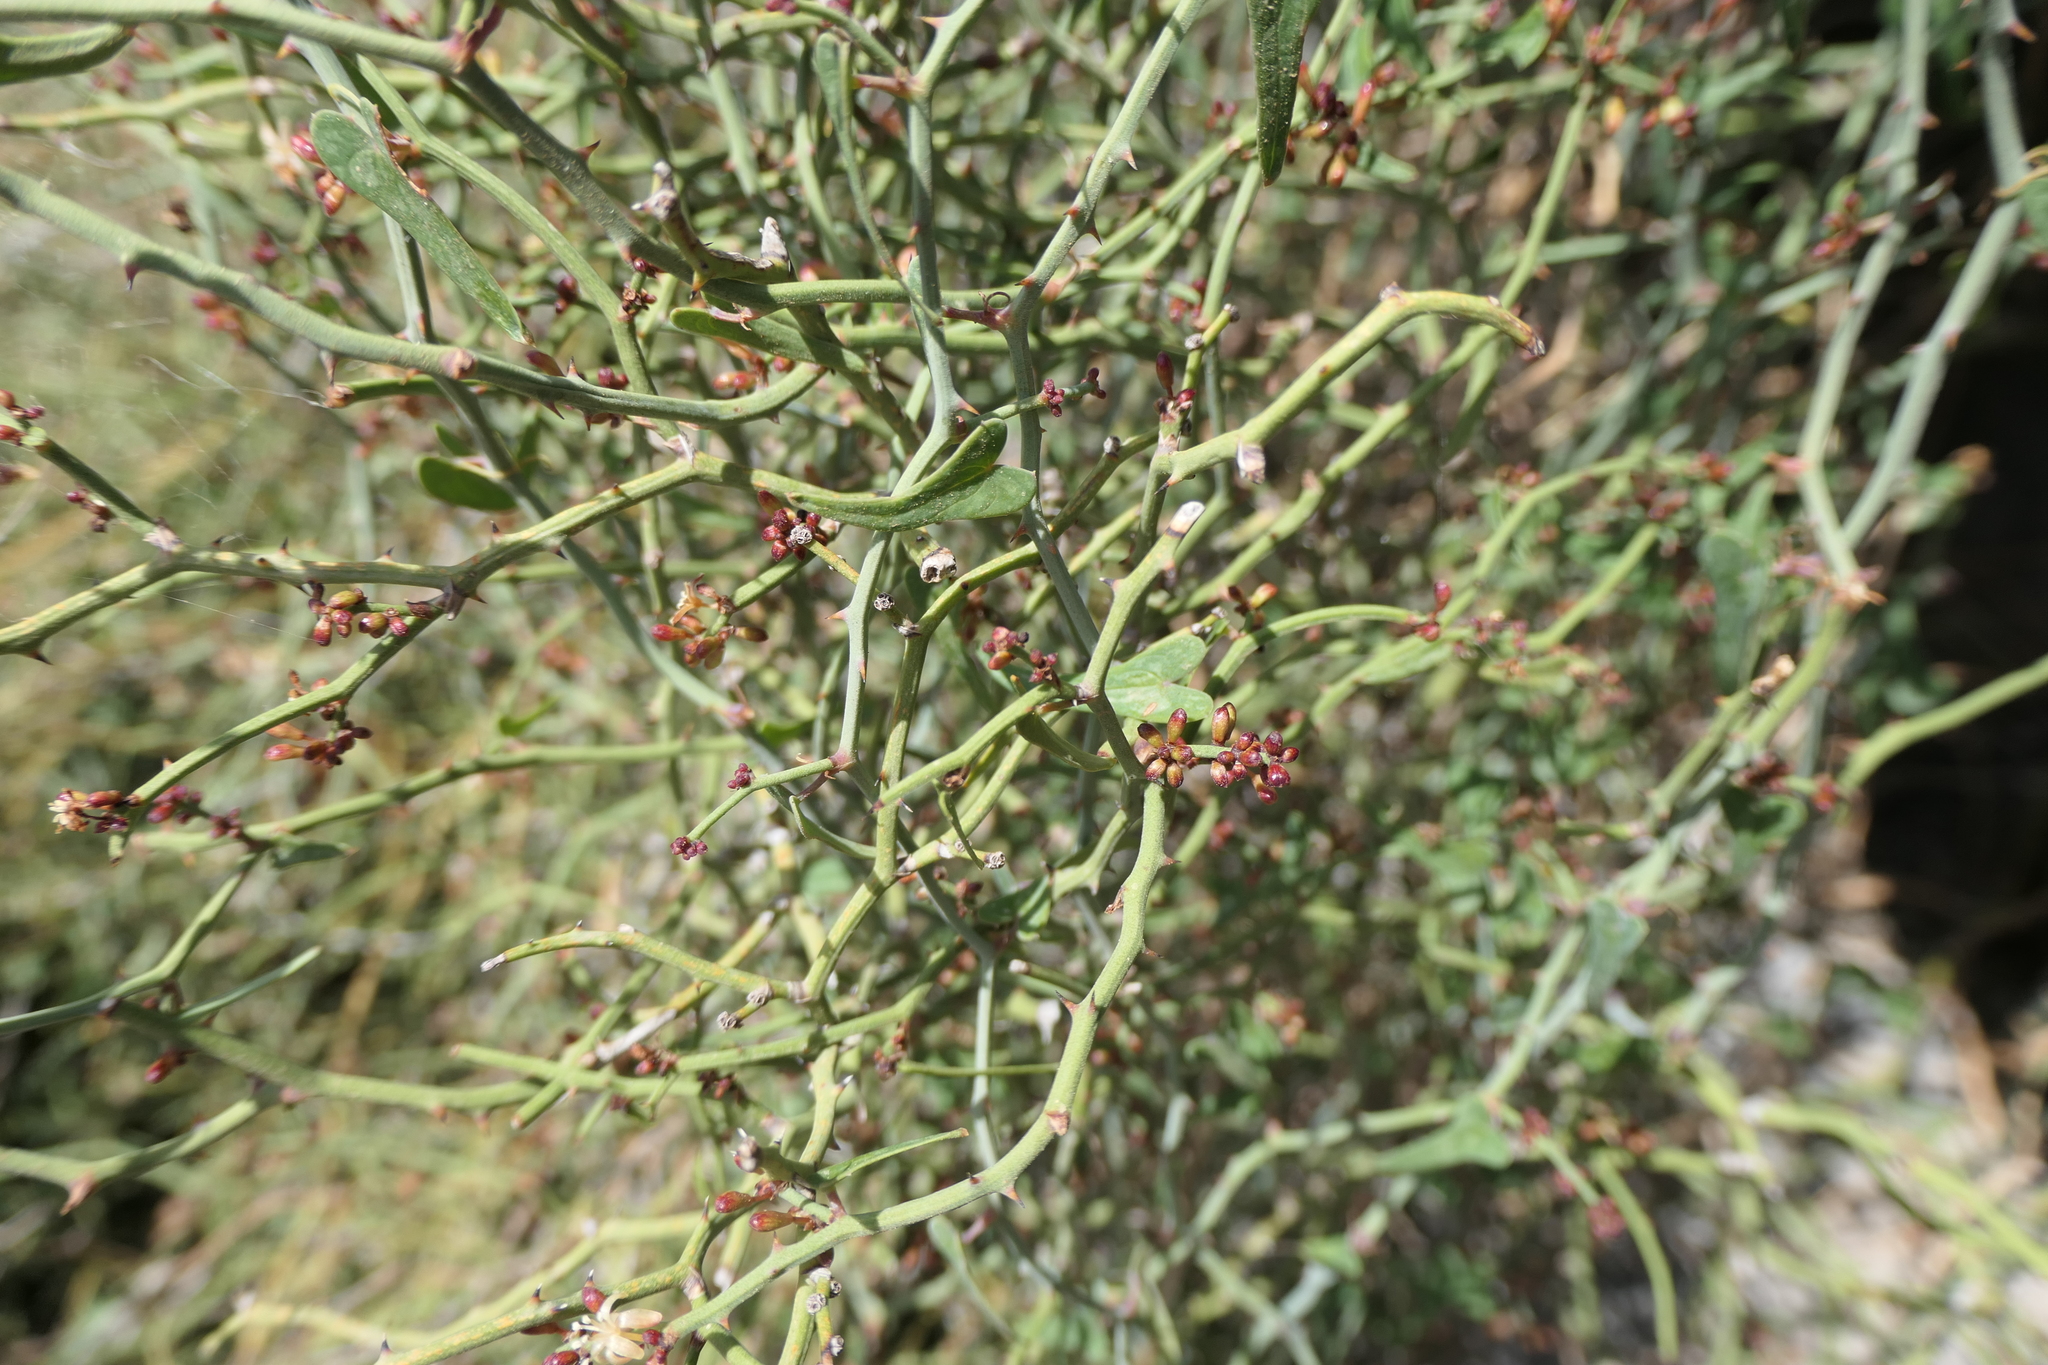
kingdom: Plantae
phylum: Tracheophyta
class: Liliopsida
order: Liliales
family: Smilacaceae
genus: Smilax
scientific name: Smilax aspera
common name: Common smilax
